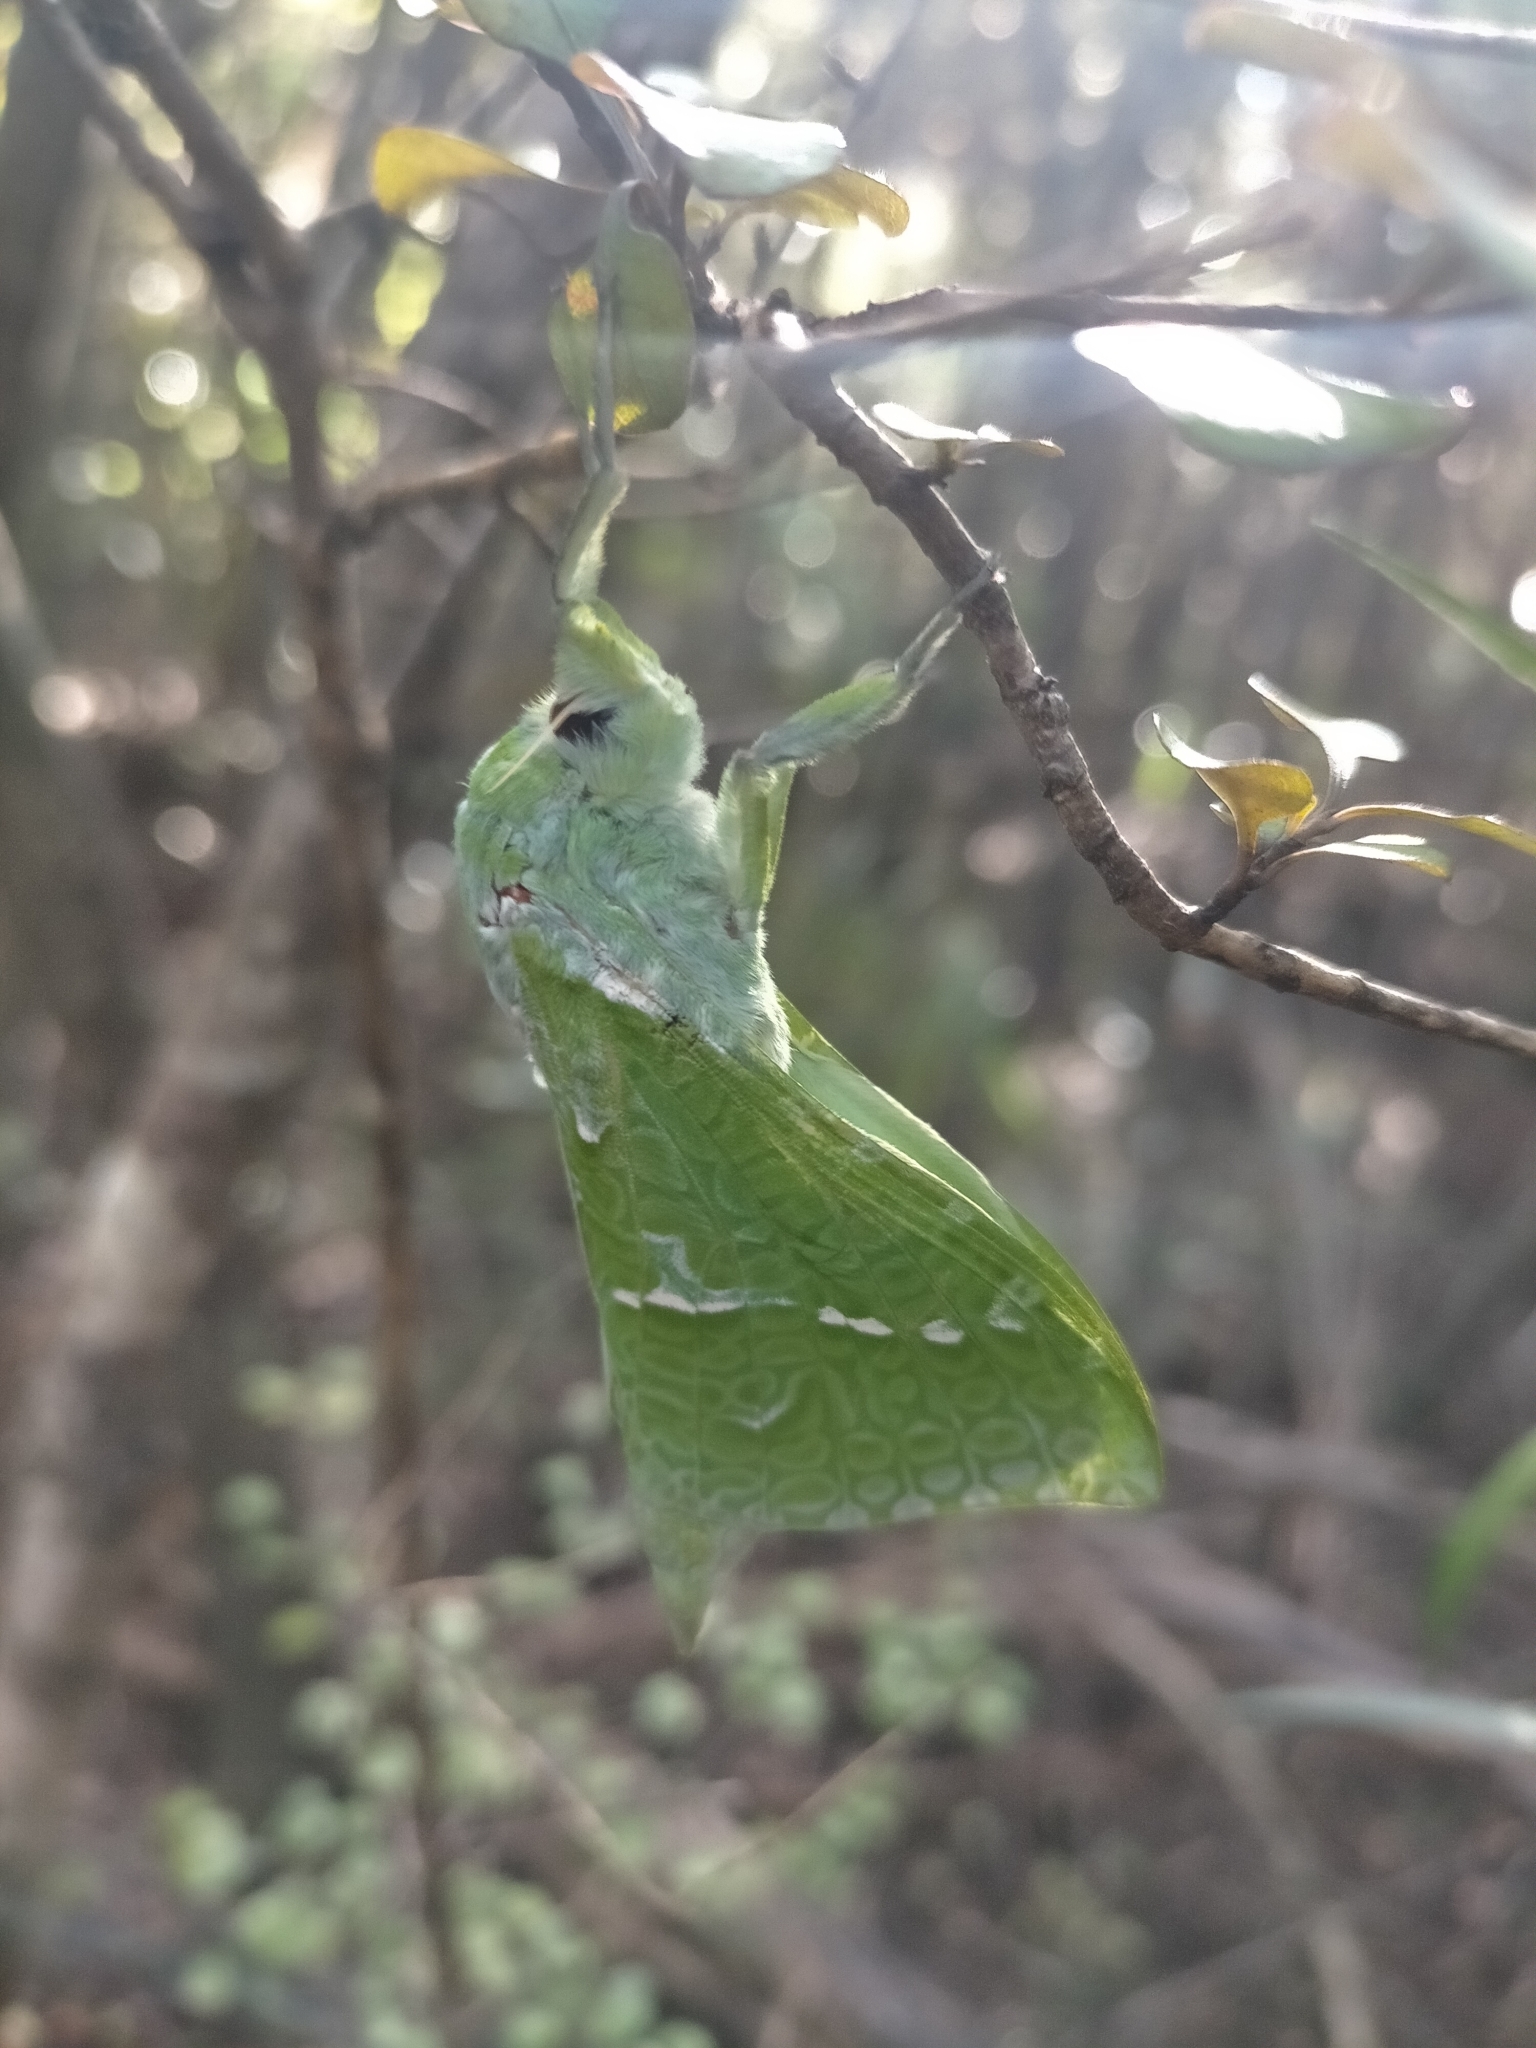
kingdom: Animalia
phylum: Arthropoda
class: Insecta
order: Lepidoptera
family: Hepialidae
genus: Aenetus
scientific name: Aenetus virescens
